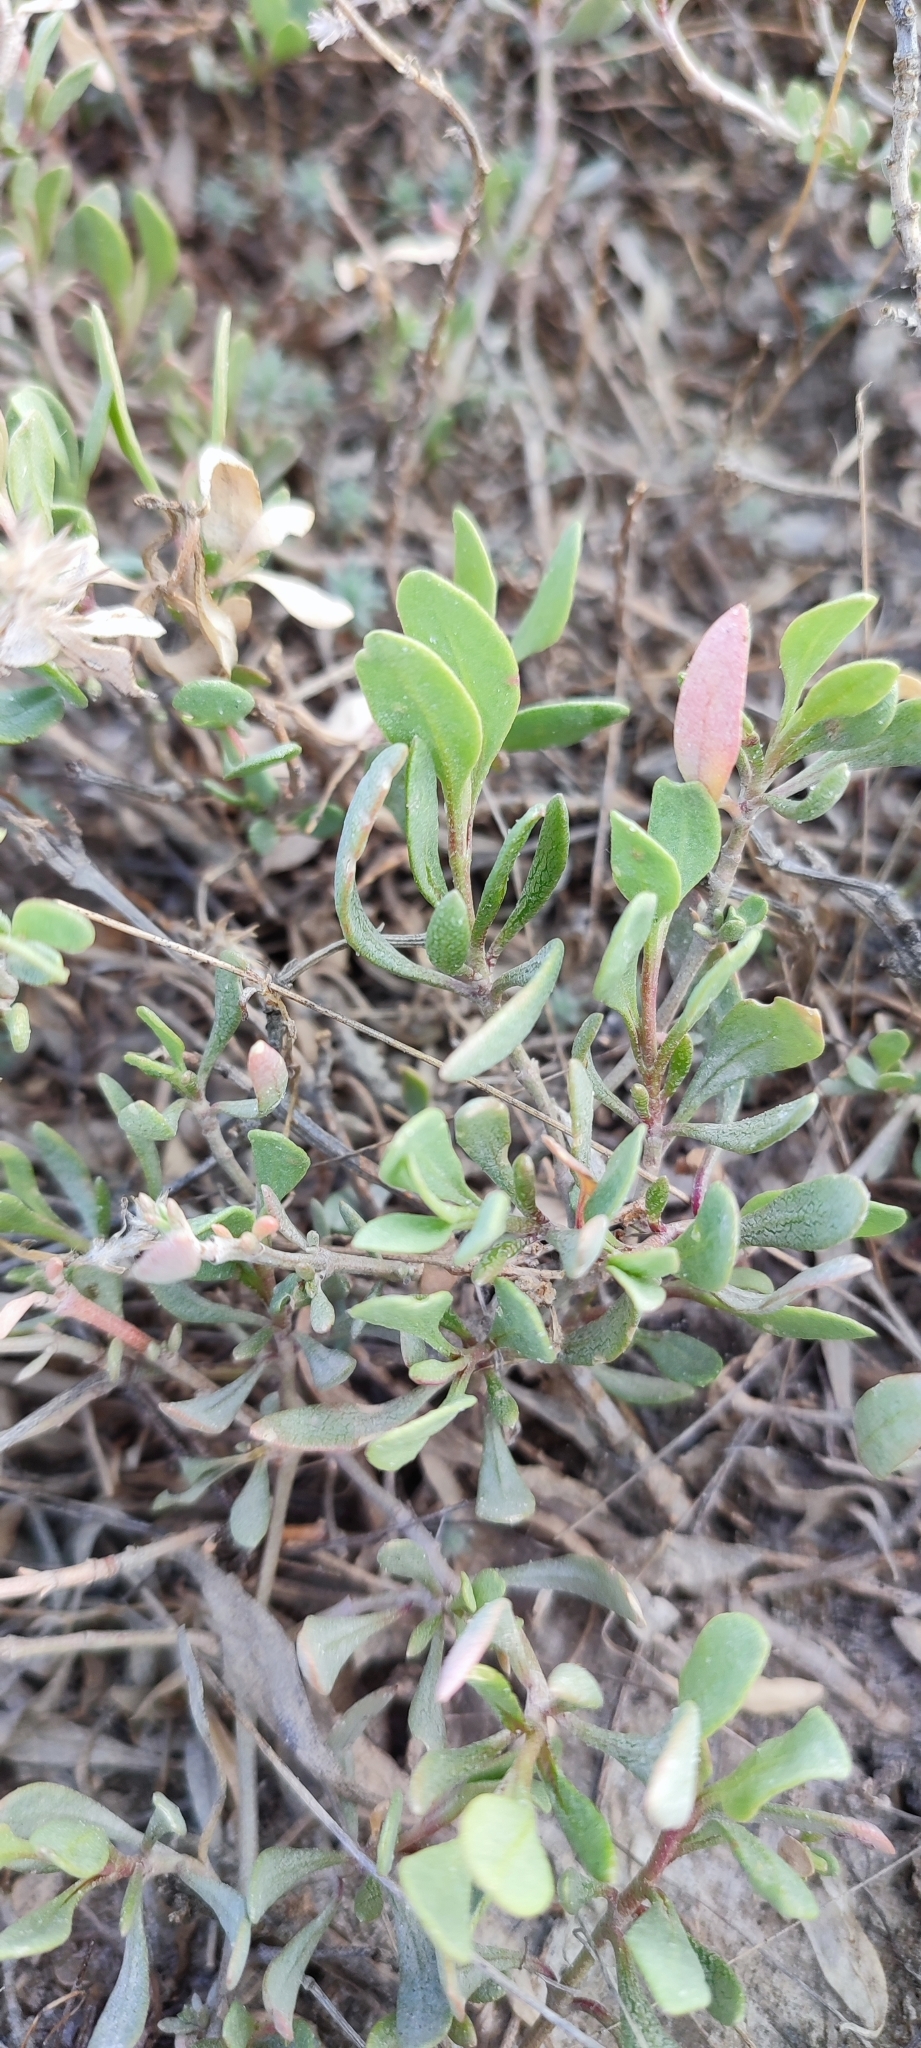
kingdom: Plantae
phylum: Tracheophyta
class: Magnoliopsida
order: Caryophyllales
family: Amaranthaceae
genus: Halimione
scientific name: Halimione verrucifera
